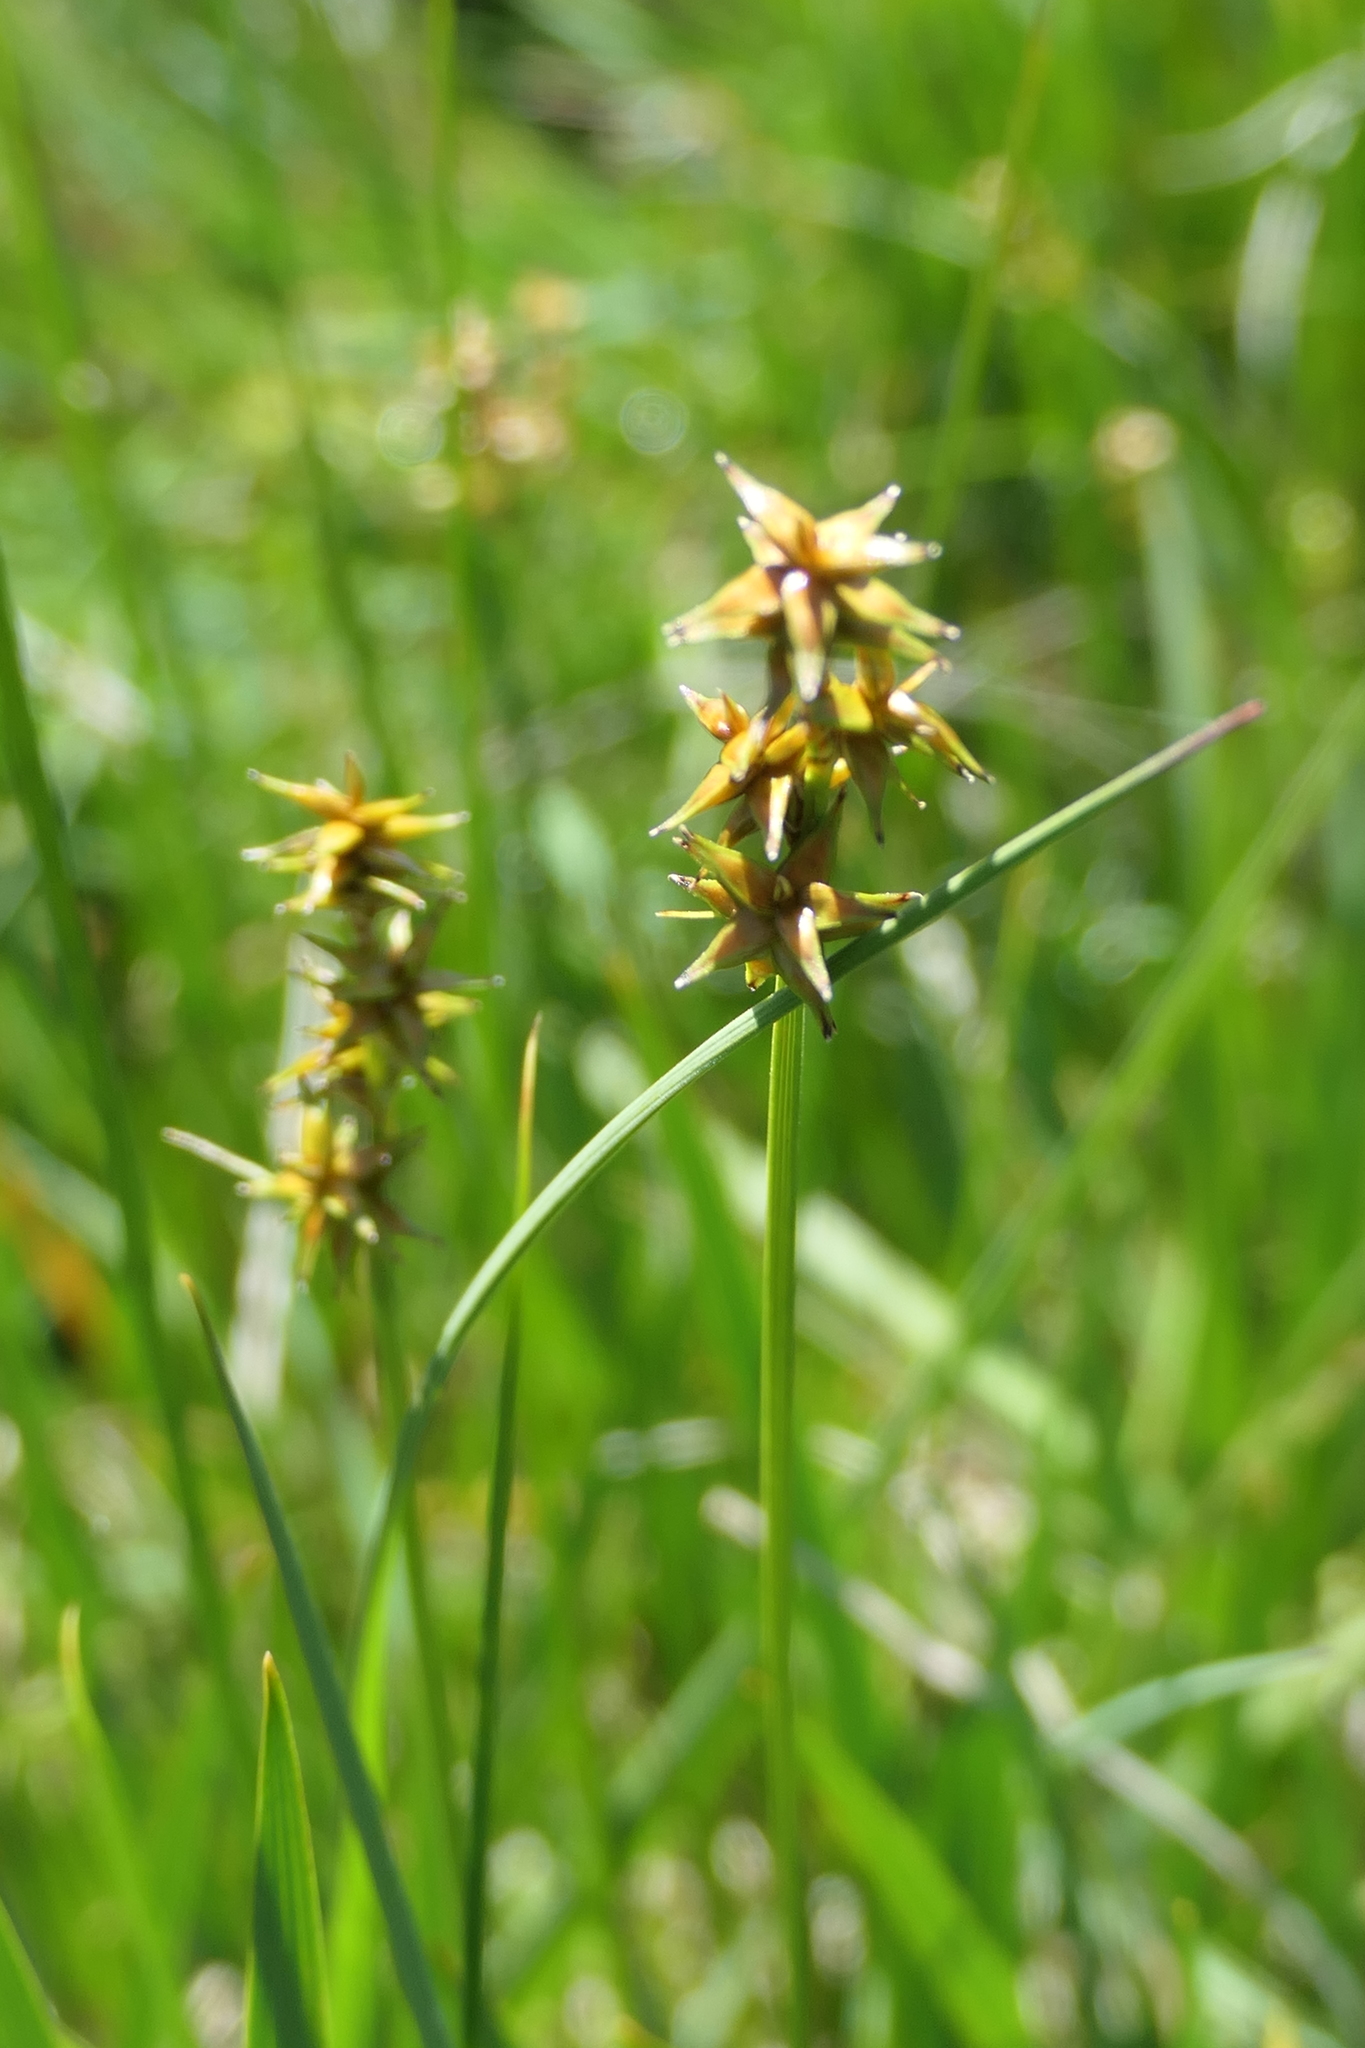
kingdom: Plantae
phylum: Tracheophyta
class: Liliopsida
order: Poales
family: Cyperaceae
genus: Carex
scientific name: Carex echinata
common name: Star sedge
